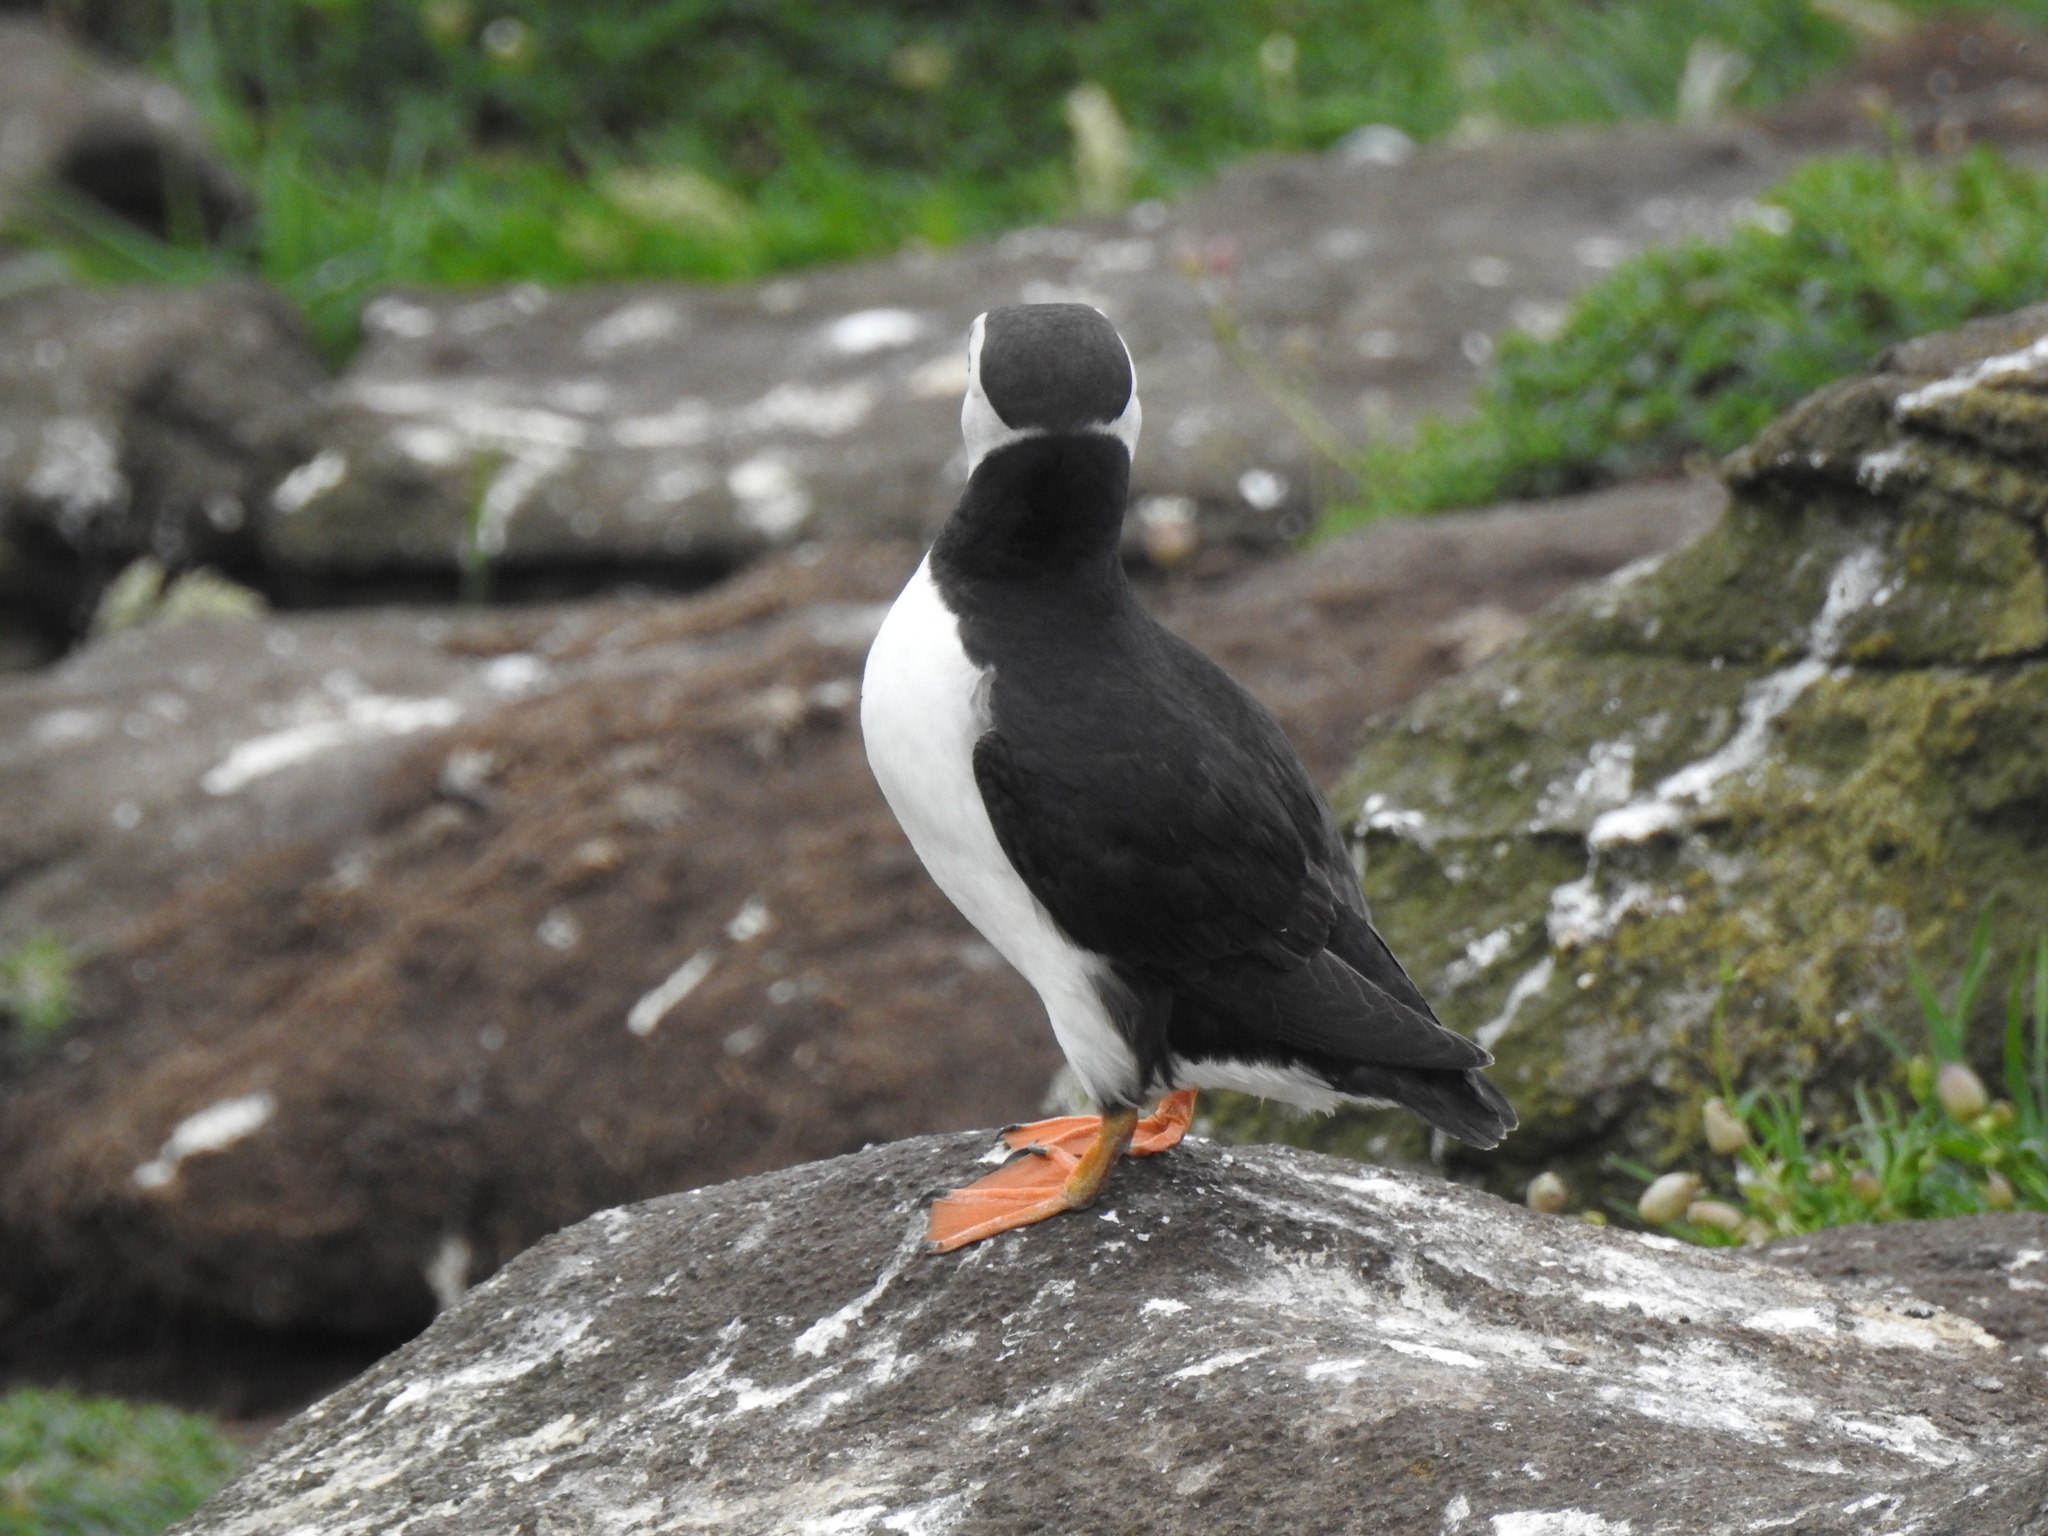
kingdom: Animalia
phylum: Chordata
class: Aves
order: Charadriiformes
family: Alcidae
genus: Fratercula
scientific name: Fratercula arctica
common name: Atlantic puffin
